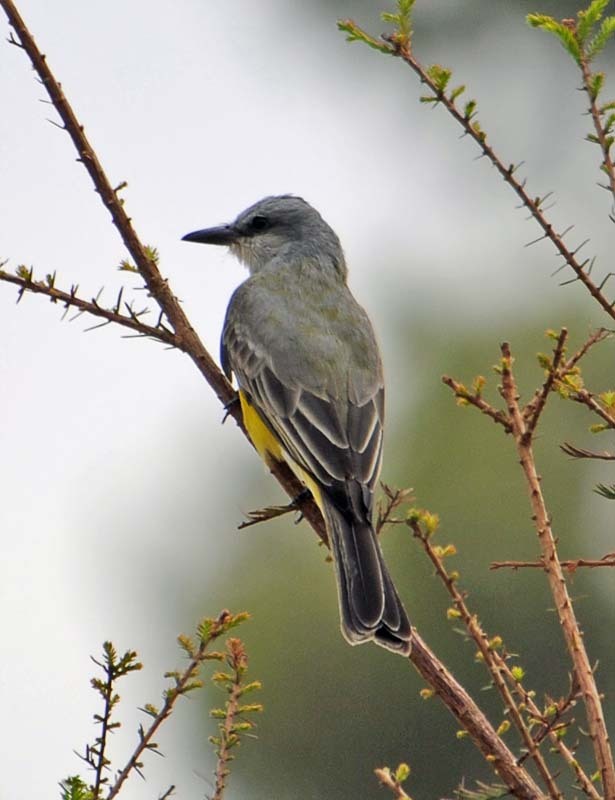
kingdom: Animalia
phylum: Chordata
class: Aves
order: Passeriformes
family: Tyrannidae
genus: Tyrannus
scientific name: Tyrannus melancholicus
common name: Tropical kingbird
